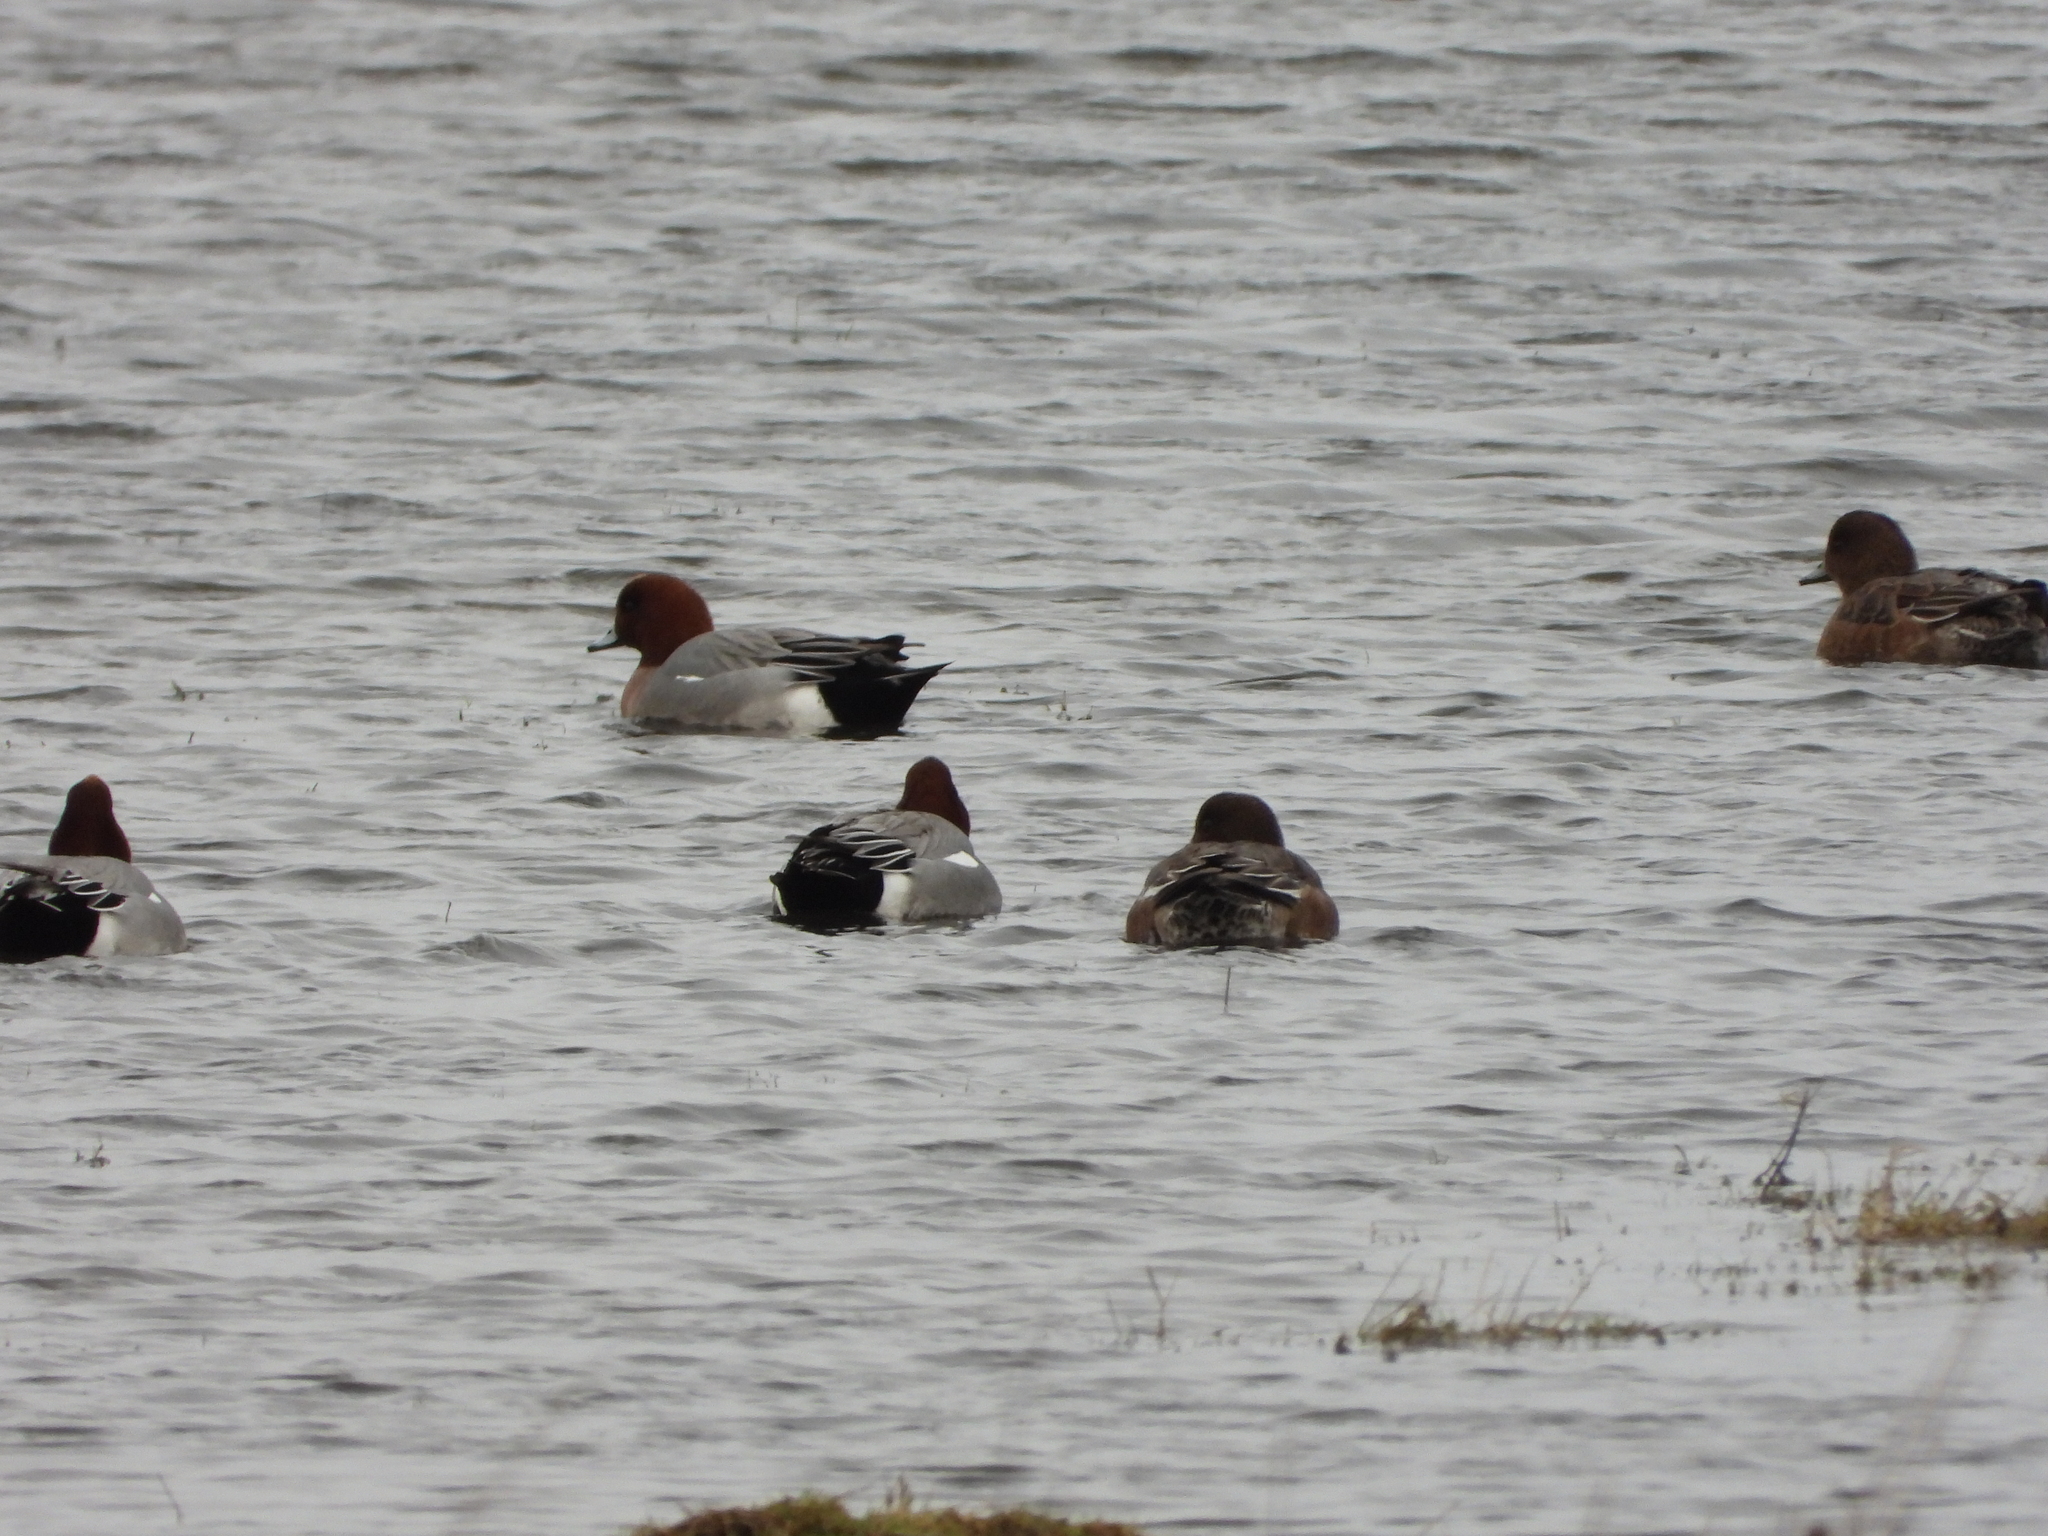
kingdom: Animalia
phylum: Chordata
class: Aves
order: Anseriformes
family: Anatidae
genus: Mareca
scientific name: Mareca penelope
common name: Eurasian wigeon
